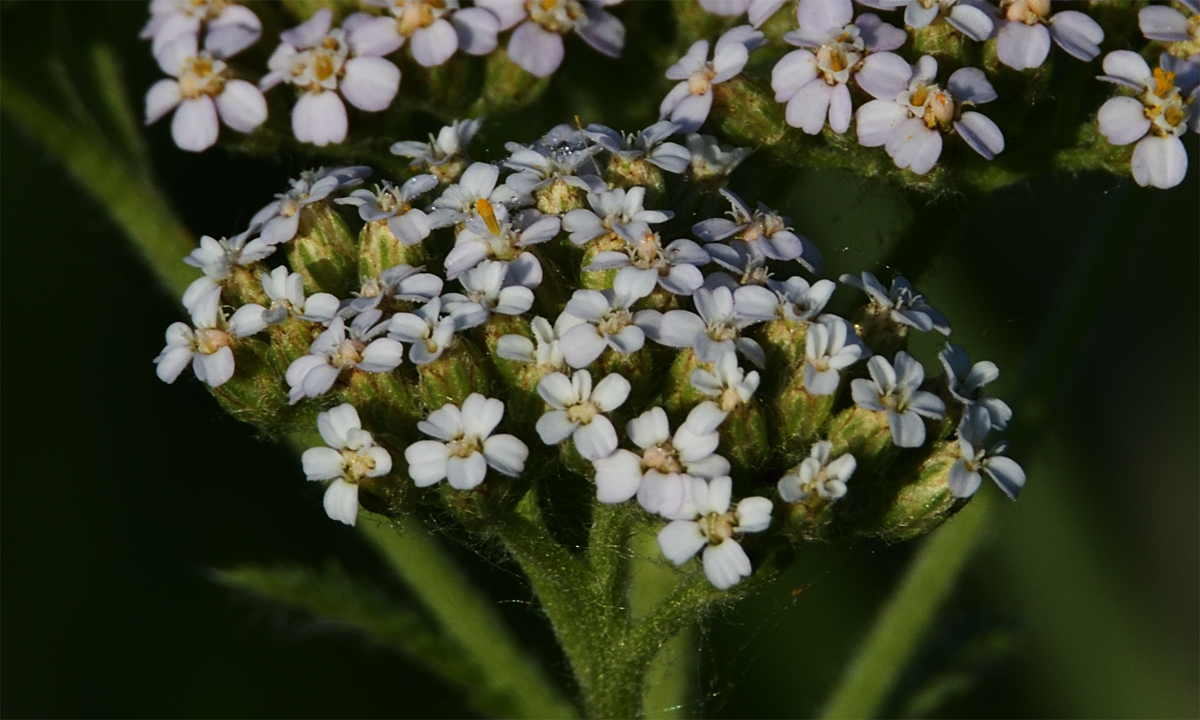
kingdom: Plantae
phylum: Tracheophyta
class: Magnoliopsida
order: Asterales
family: Asteraceae
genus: Achillea
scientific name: Achillea millefolium
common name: Yarrow
